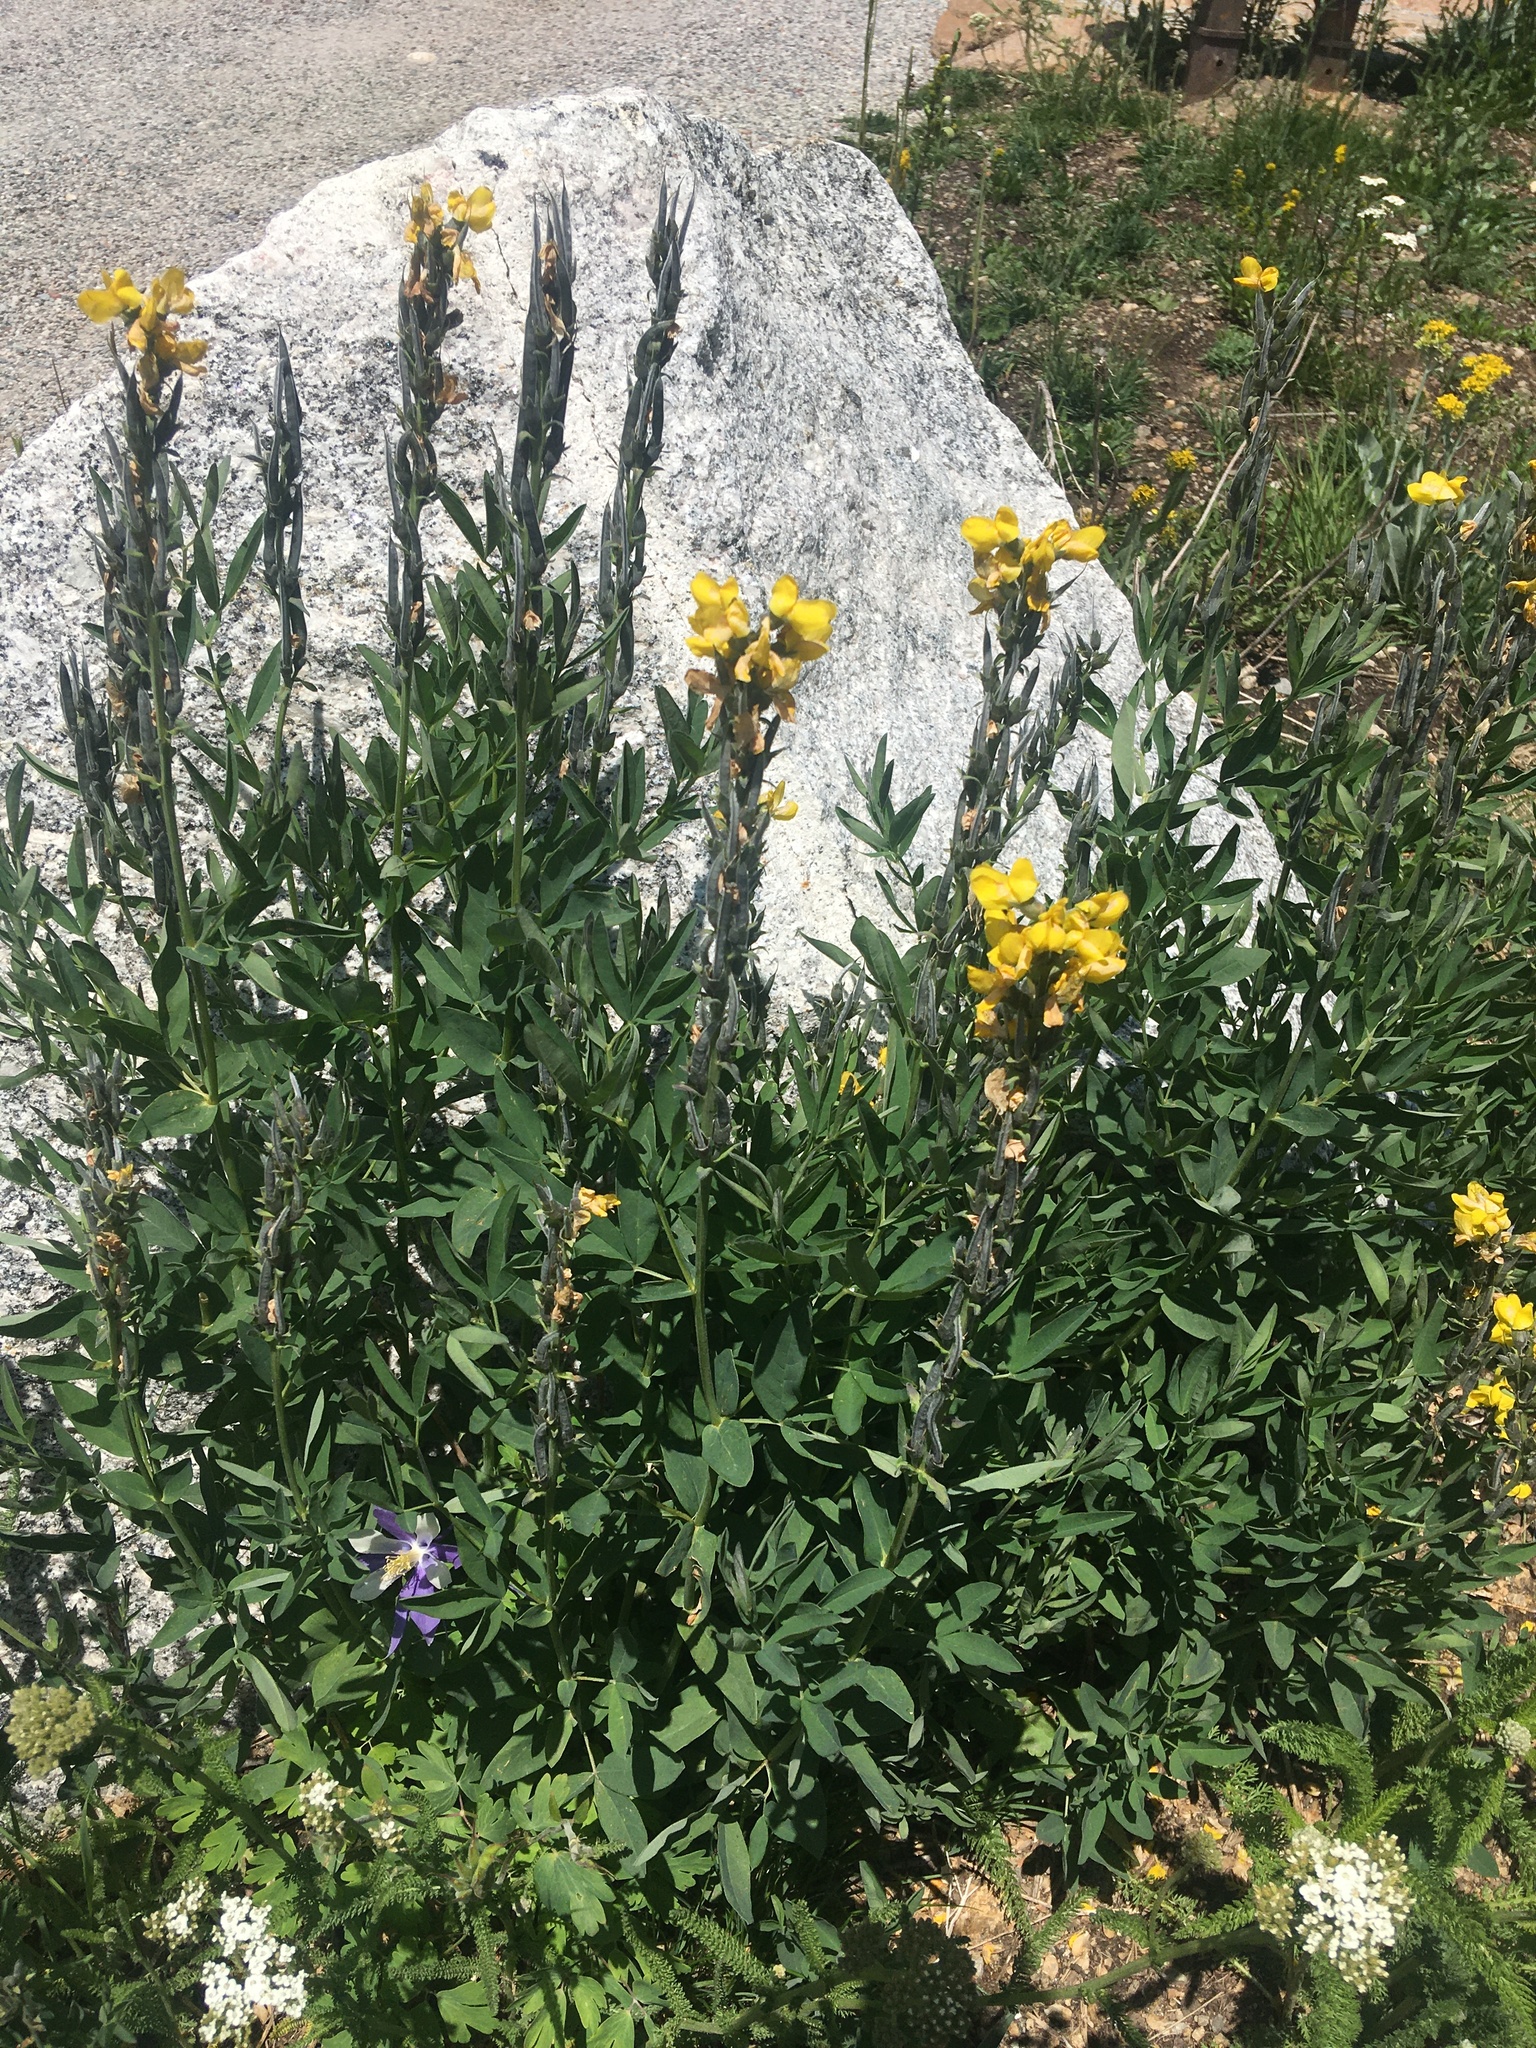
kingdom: Plantae
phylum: Tracheophyta
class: Magnoliopsida
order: Fabales
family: Fabaceae
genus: Thermopsis
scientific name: Thermopsis montana
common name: False lupin
